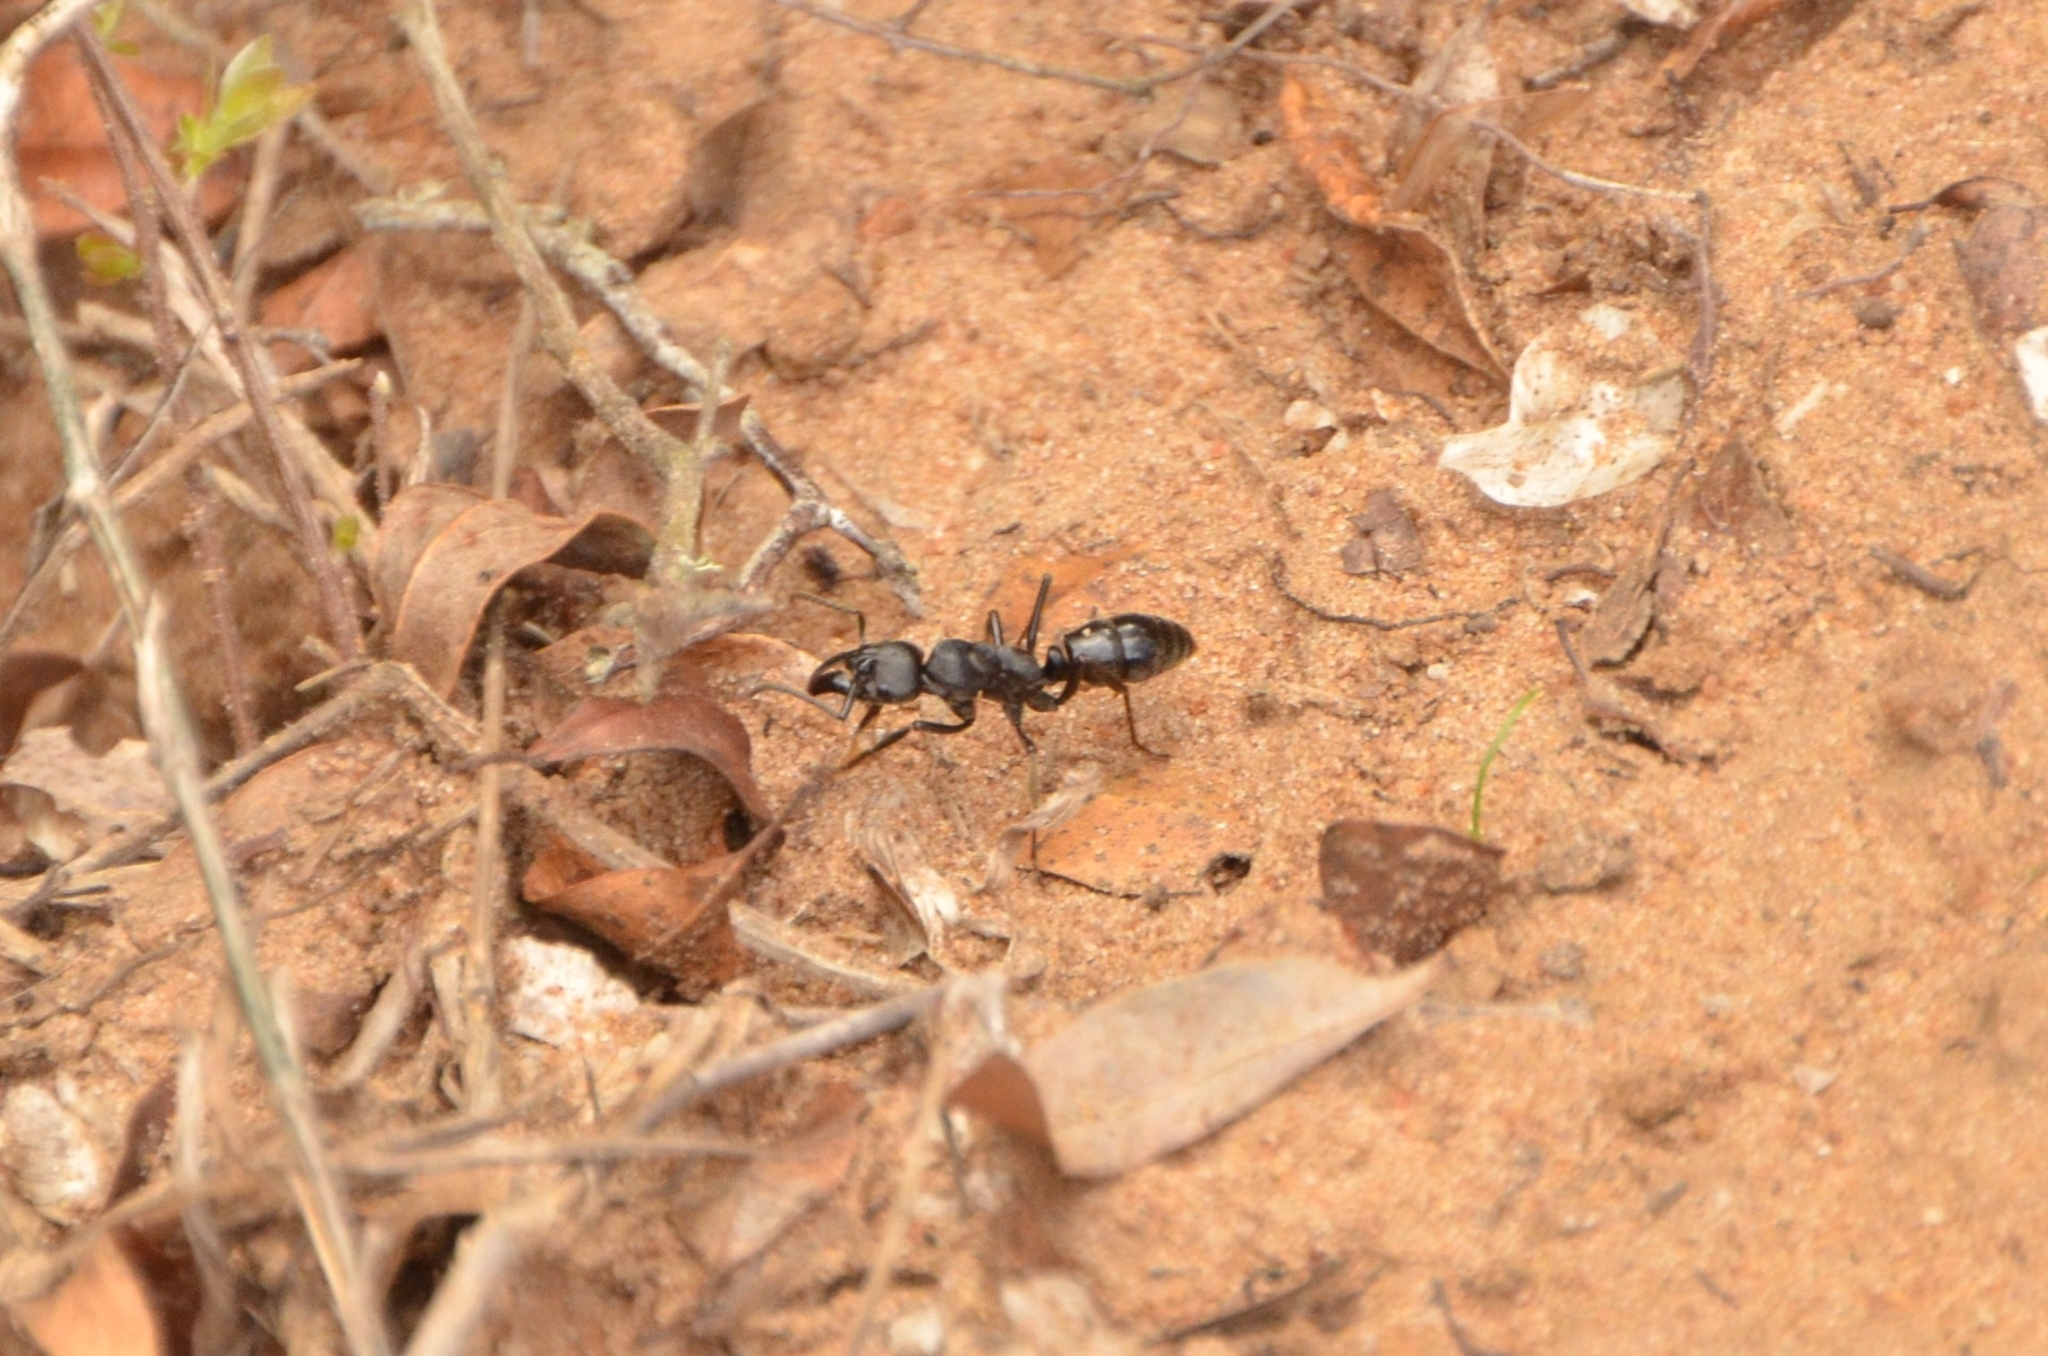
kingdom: Animalia
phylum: Arthropoda
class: Insecta
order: Hymenoptera
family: Formicidae
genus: Paltothyreus
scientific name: Paltothyreus tarsatus
